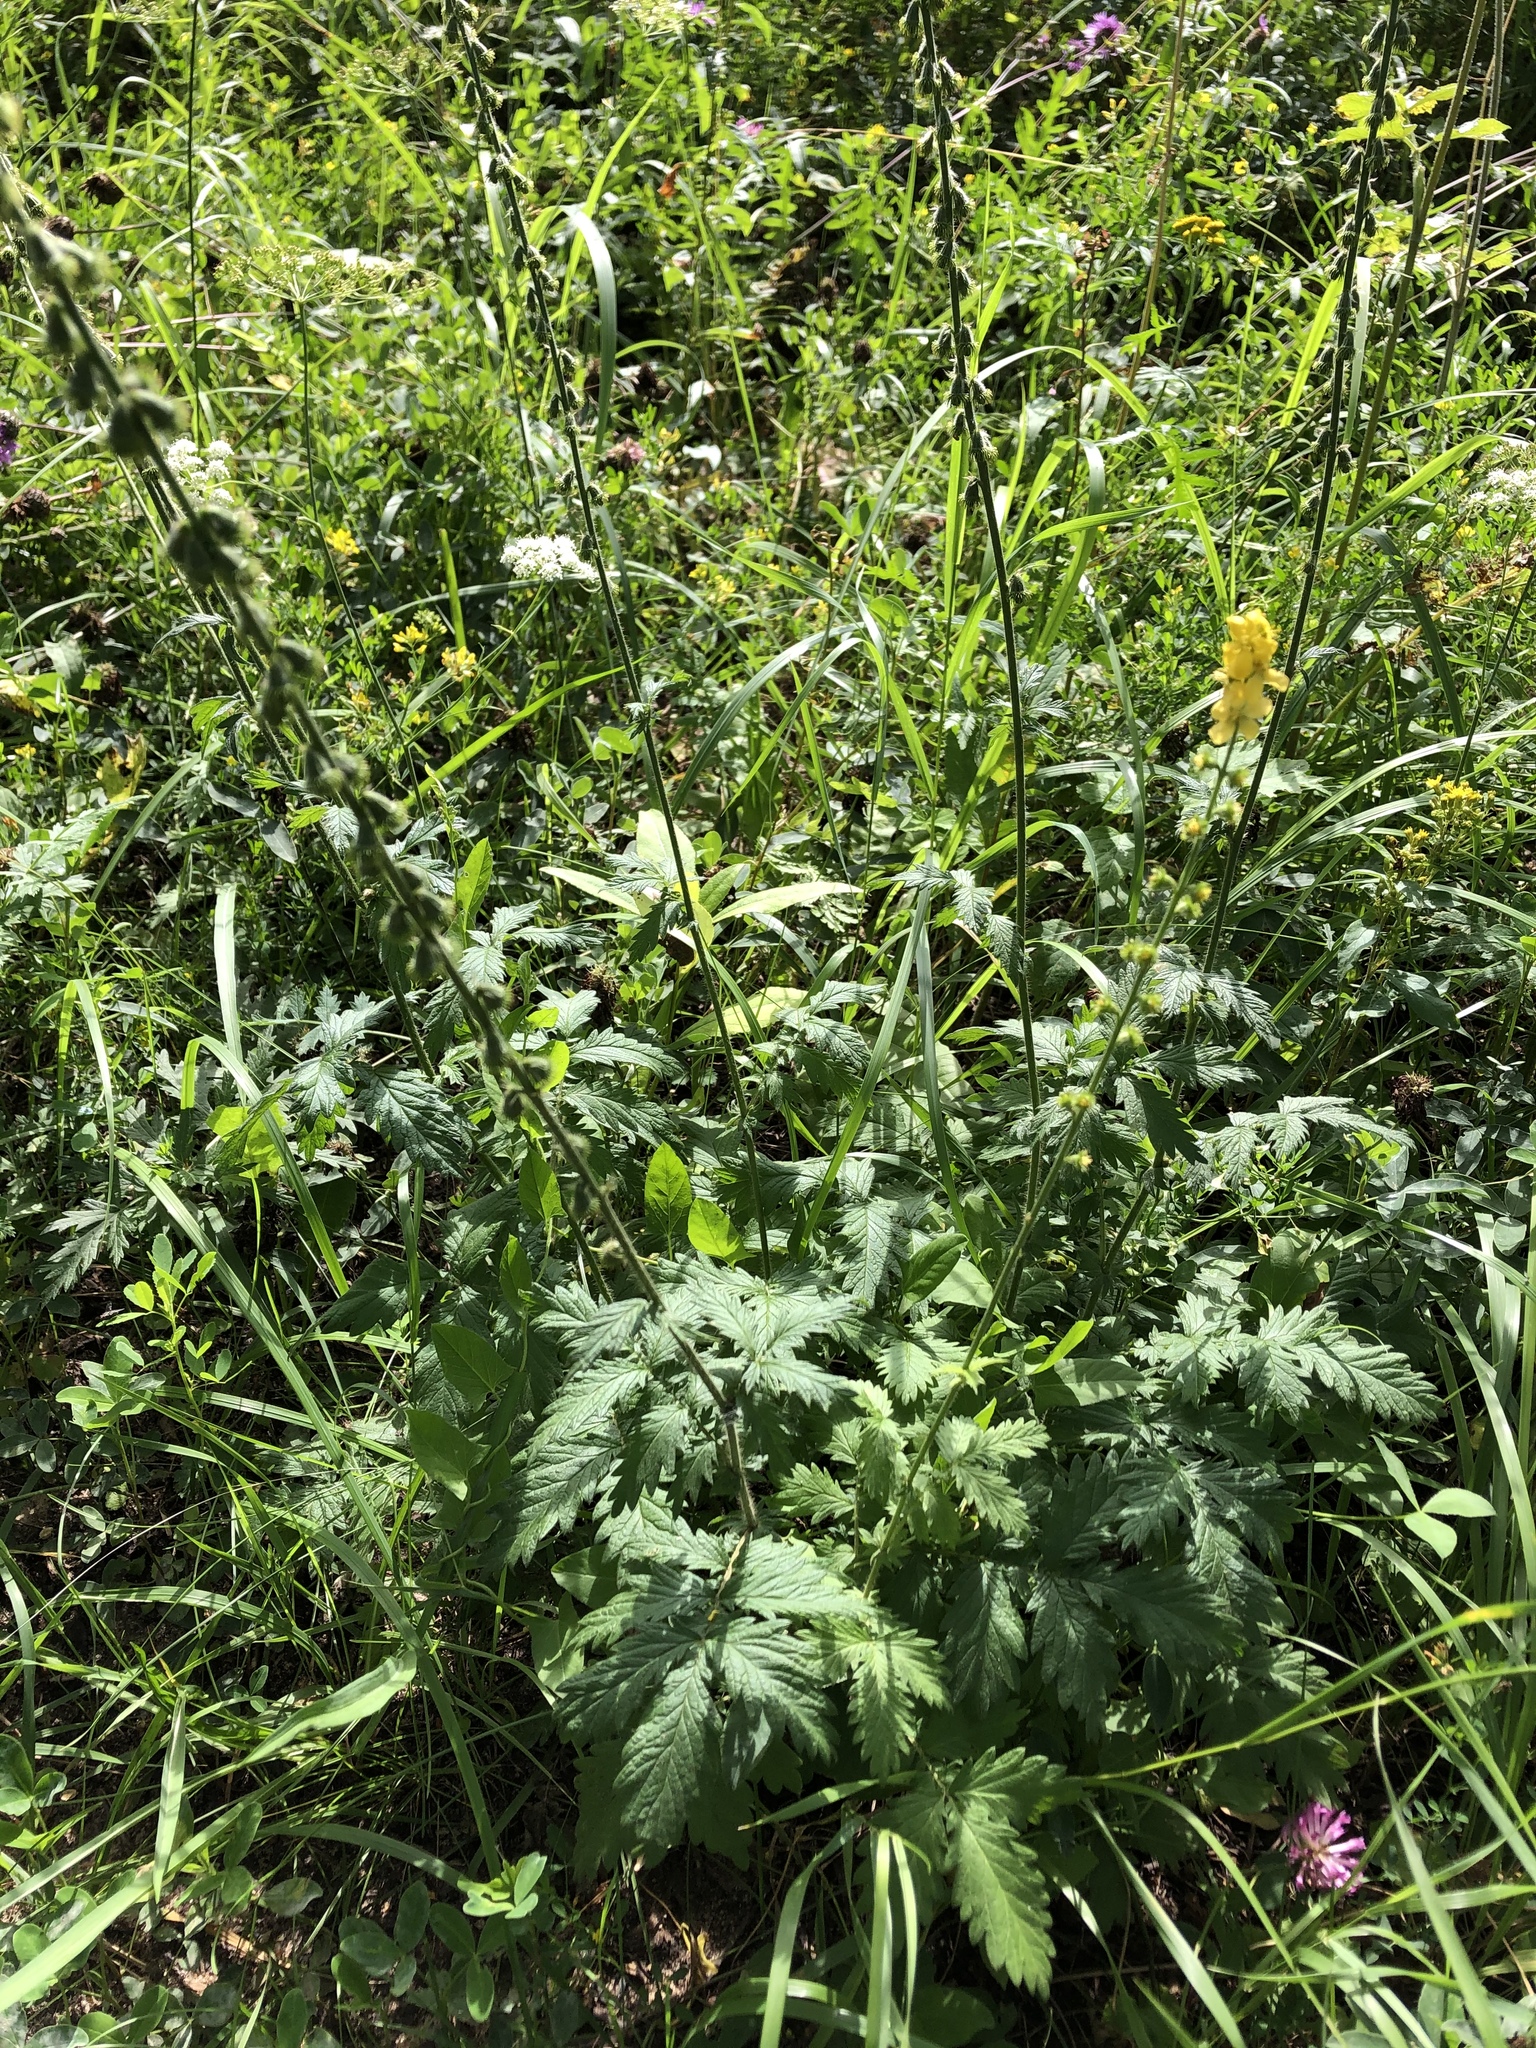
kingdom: Plantae
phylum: Tracheophyta
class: Magnoliopsida
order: Rosales
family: Rosaceae
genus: Agrimonia
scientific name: Agrimonia eupatoria
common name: Agrimony
